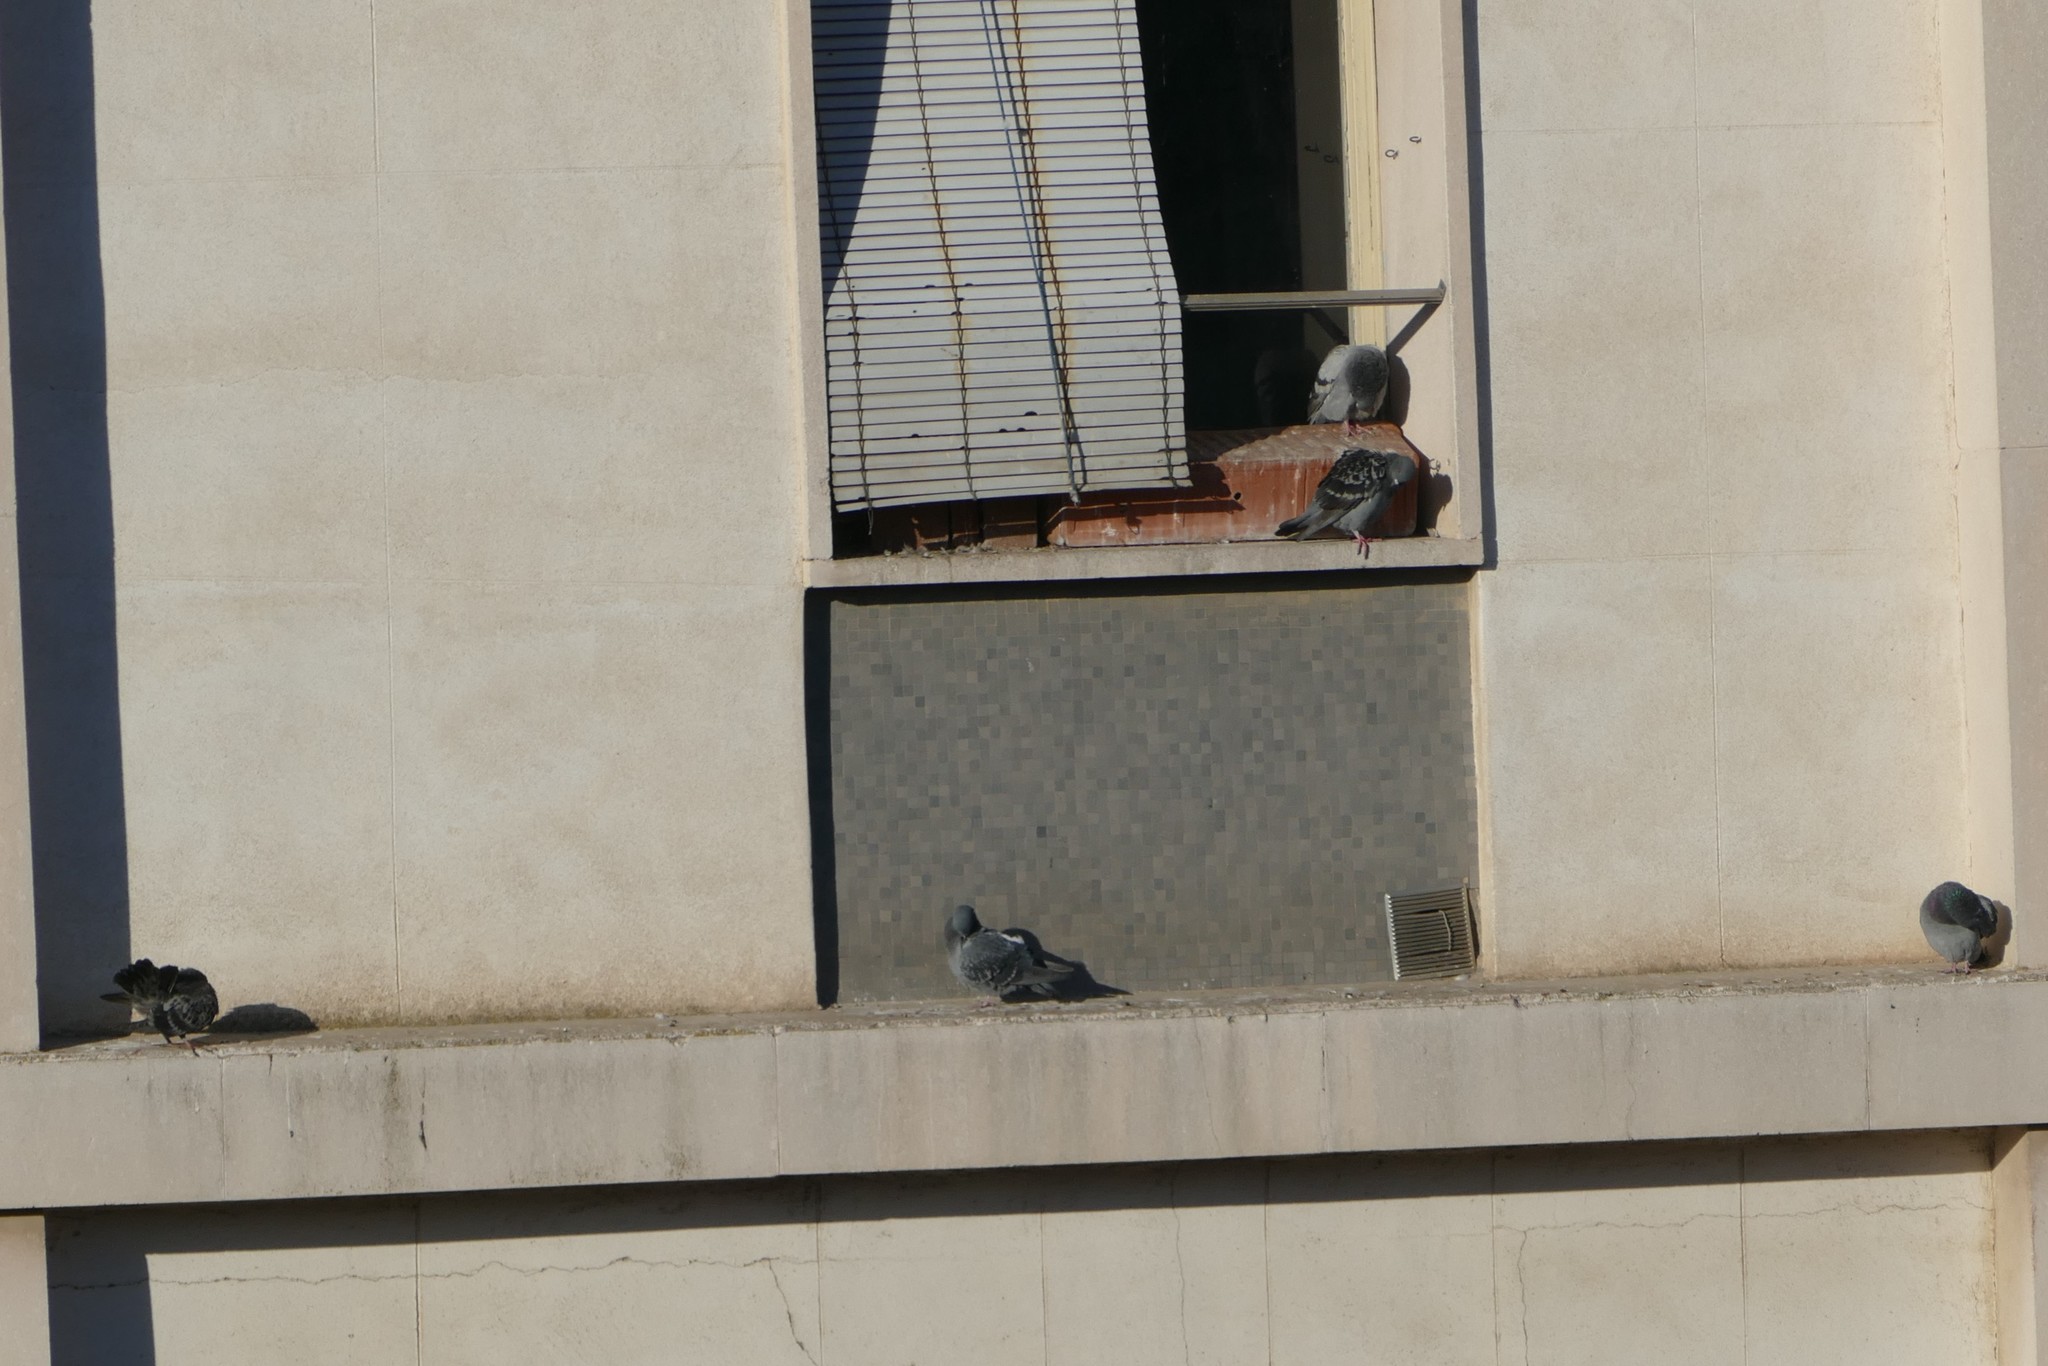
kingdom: Animalia
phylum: Chordata
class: Aves
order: Columbiformes
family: Columbidae
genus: Columba
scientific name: Columba livia
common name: Rock pigeon
